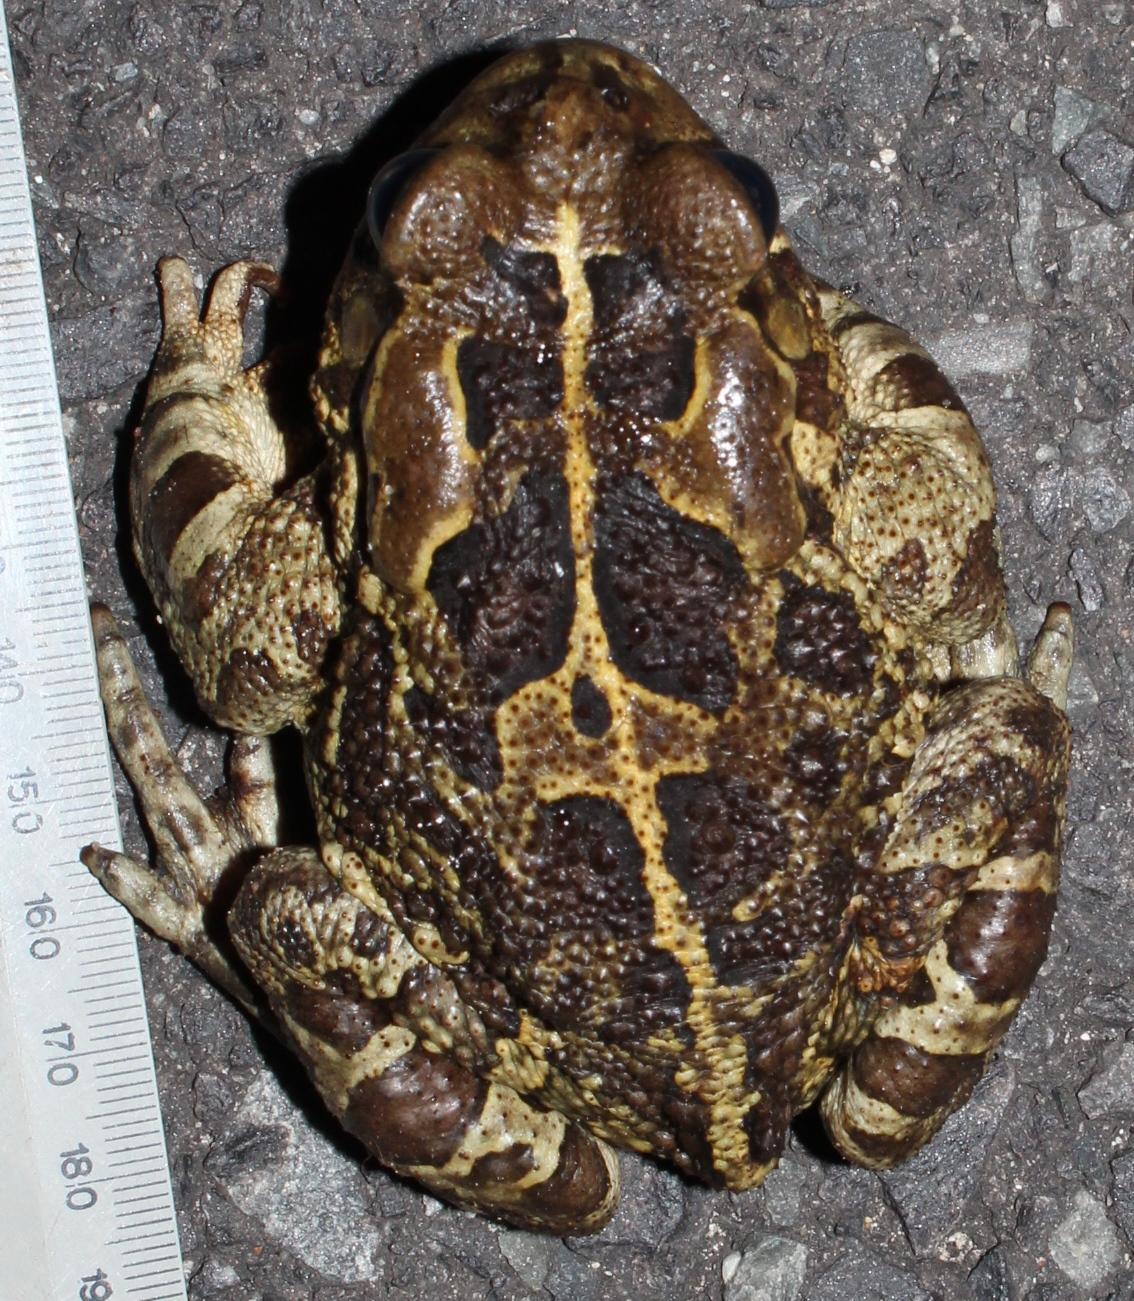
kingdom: Animalia
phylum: Chordata
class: Amphibia
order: Anura
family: Bufonidae
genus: Sclerophrys
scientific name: Sclerophrys pantherina
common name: Panther toad
